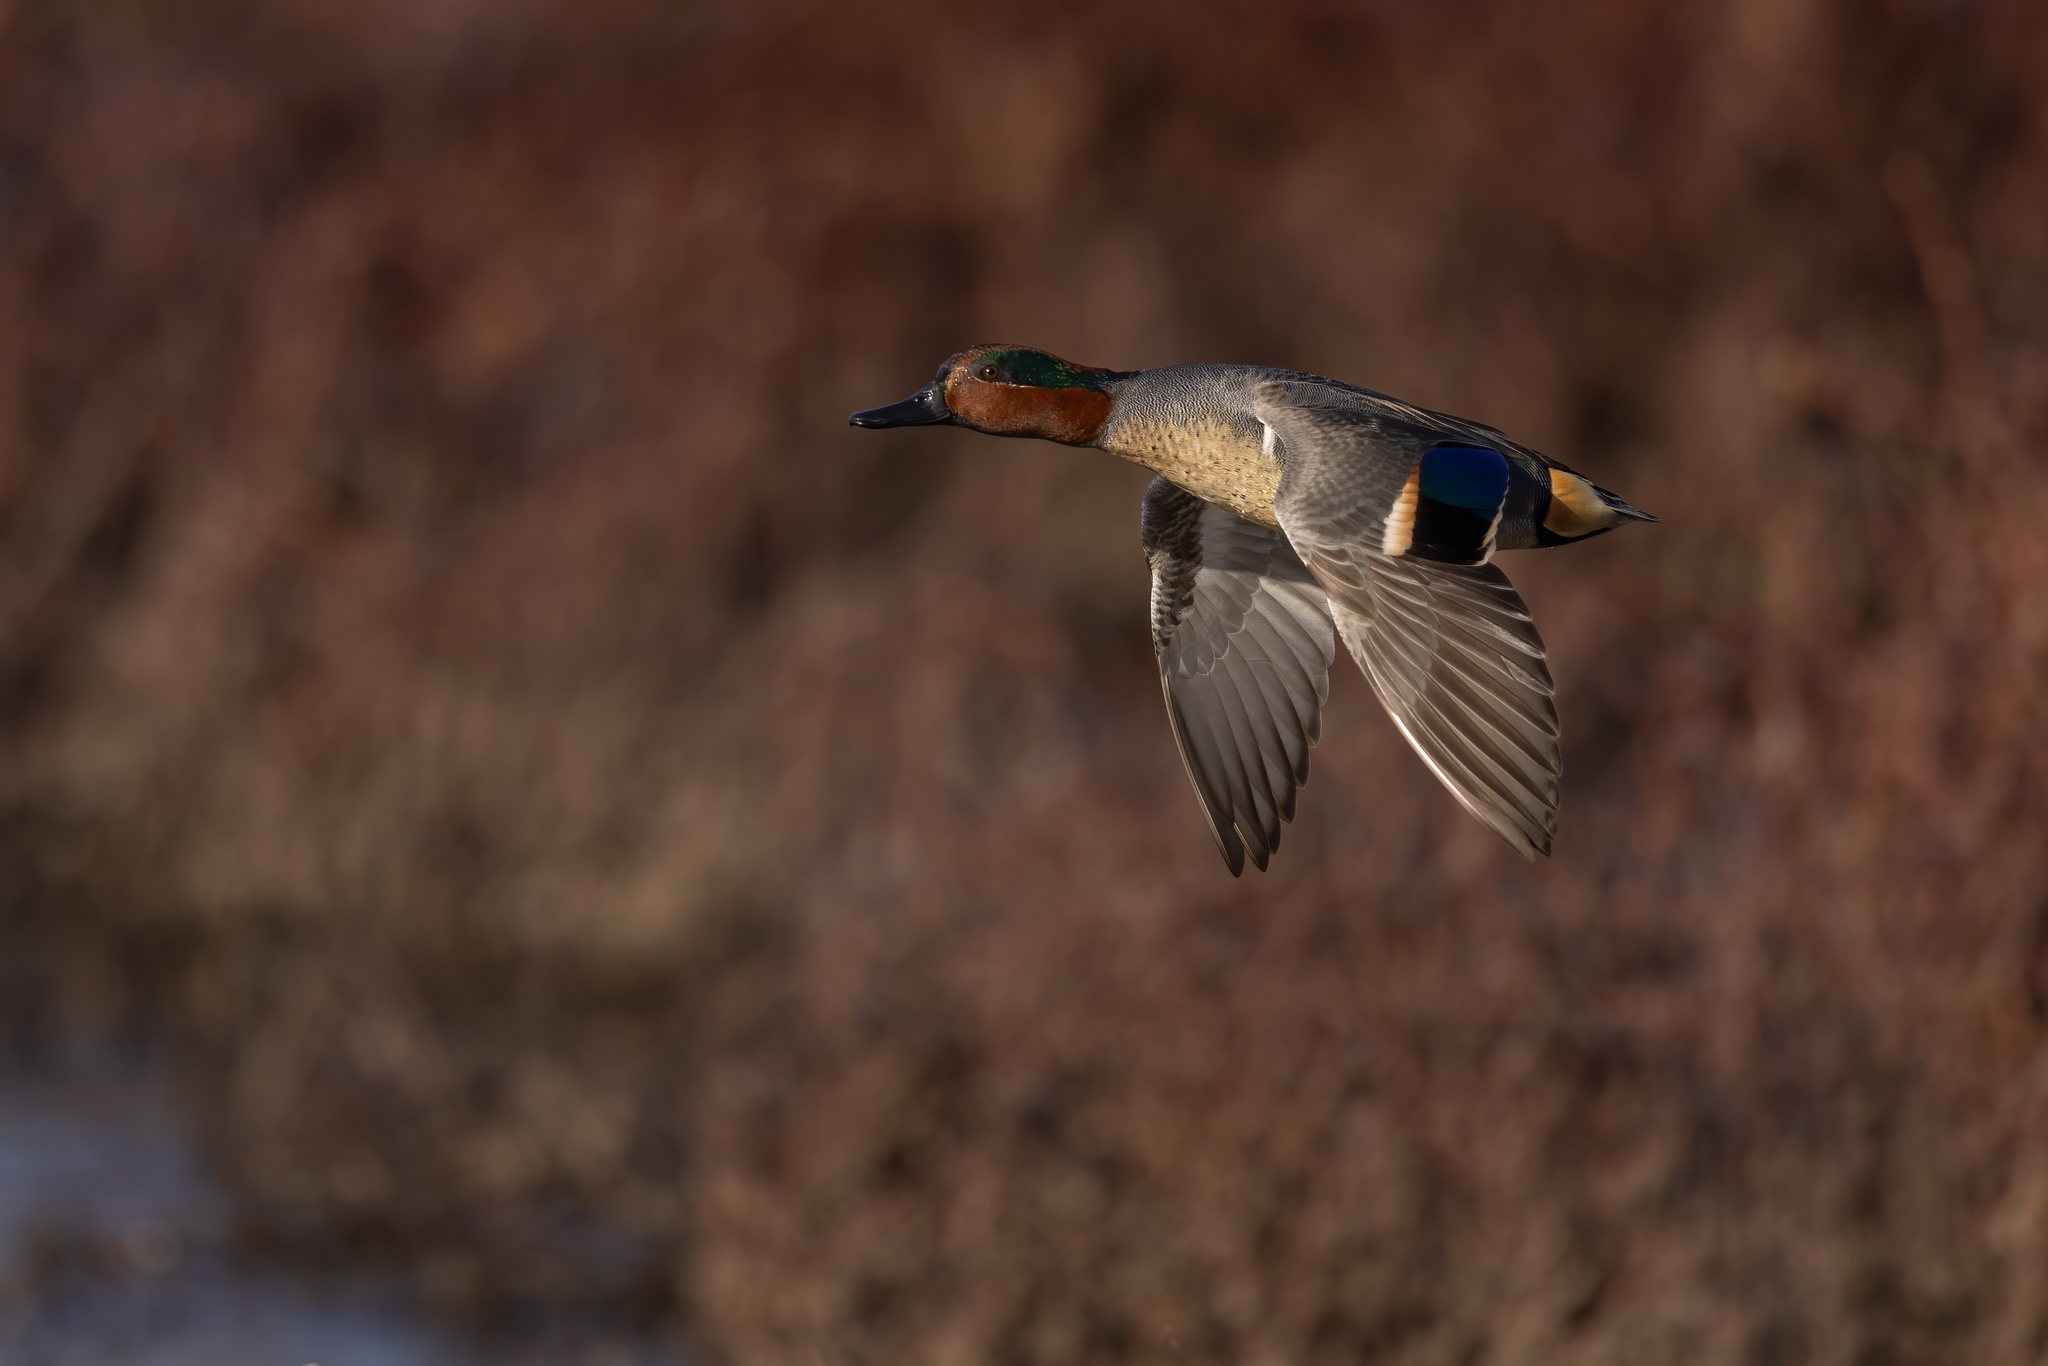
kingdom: Animalia
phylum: Chordata
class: Aves
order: Anseriformes
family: Anatidae
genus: Anas
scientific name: Anas crecca
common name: Eurasian teal
